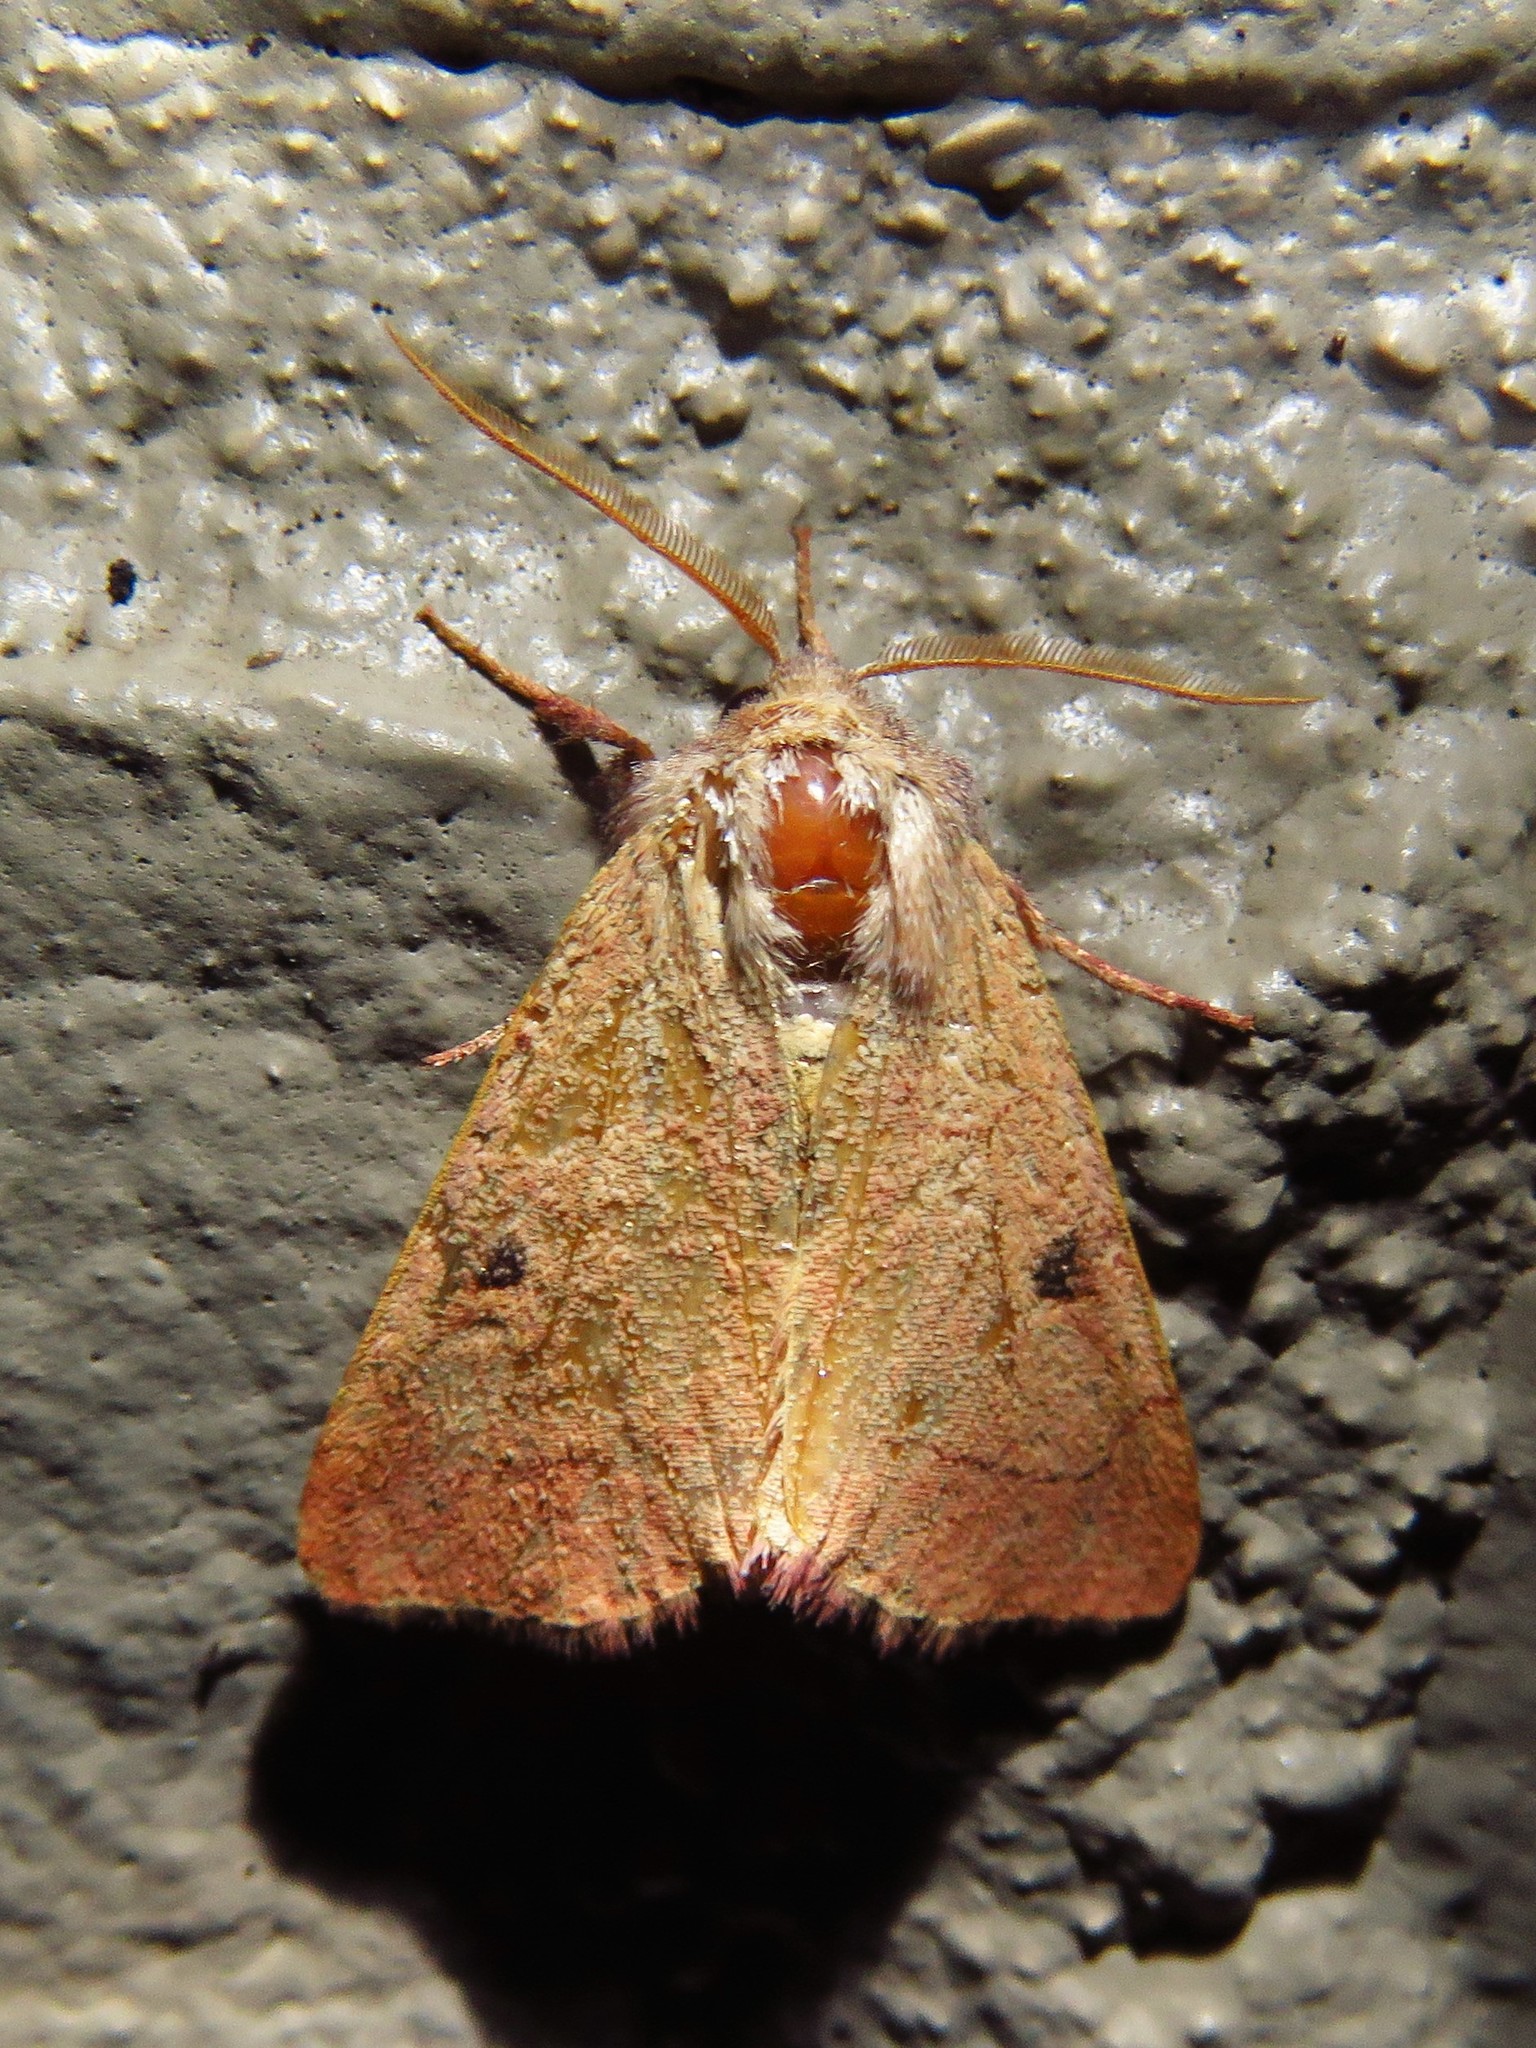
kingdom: Animalia
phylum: Arthropoda
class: Insecta
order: Lepidoptera
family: Noctuidae
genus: Choephora
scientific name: Choephora fungorum
